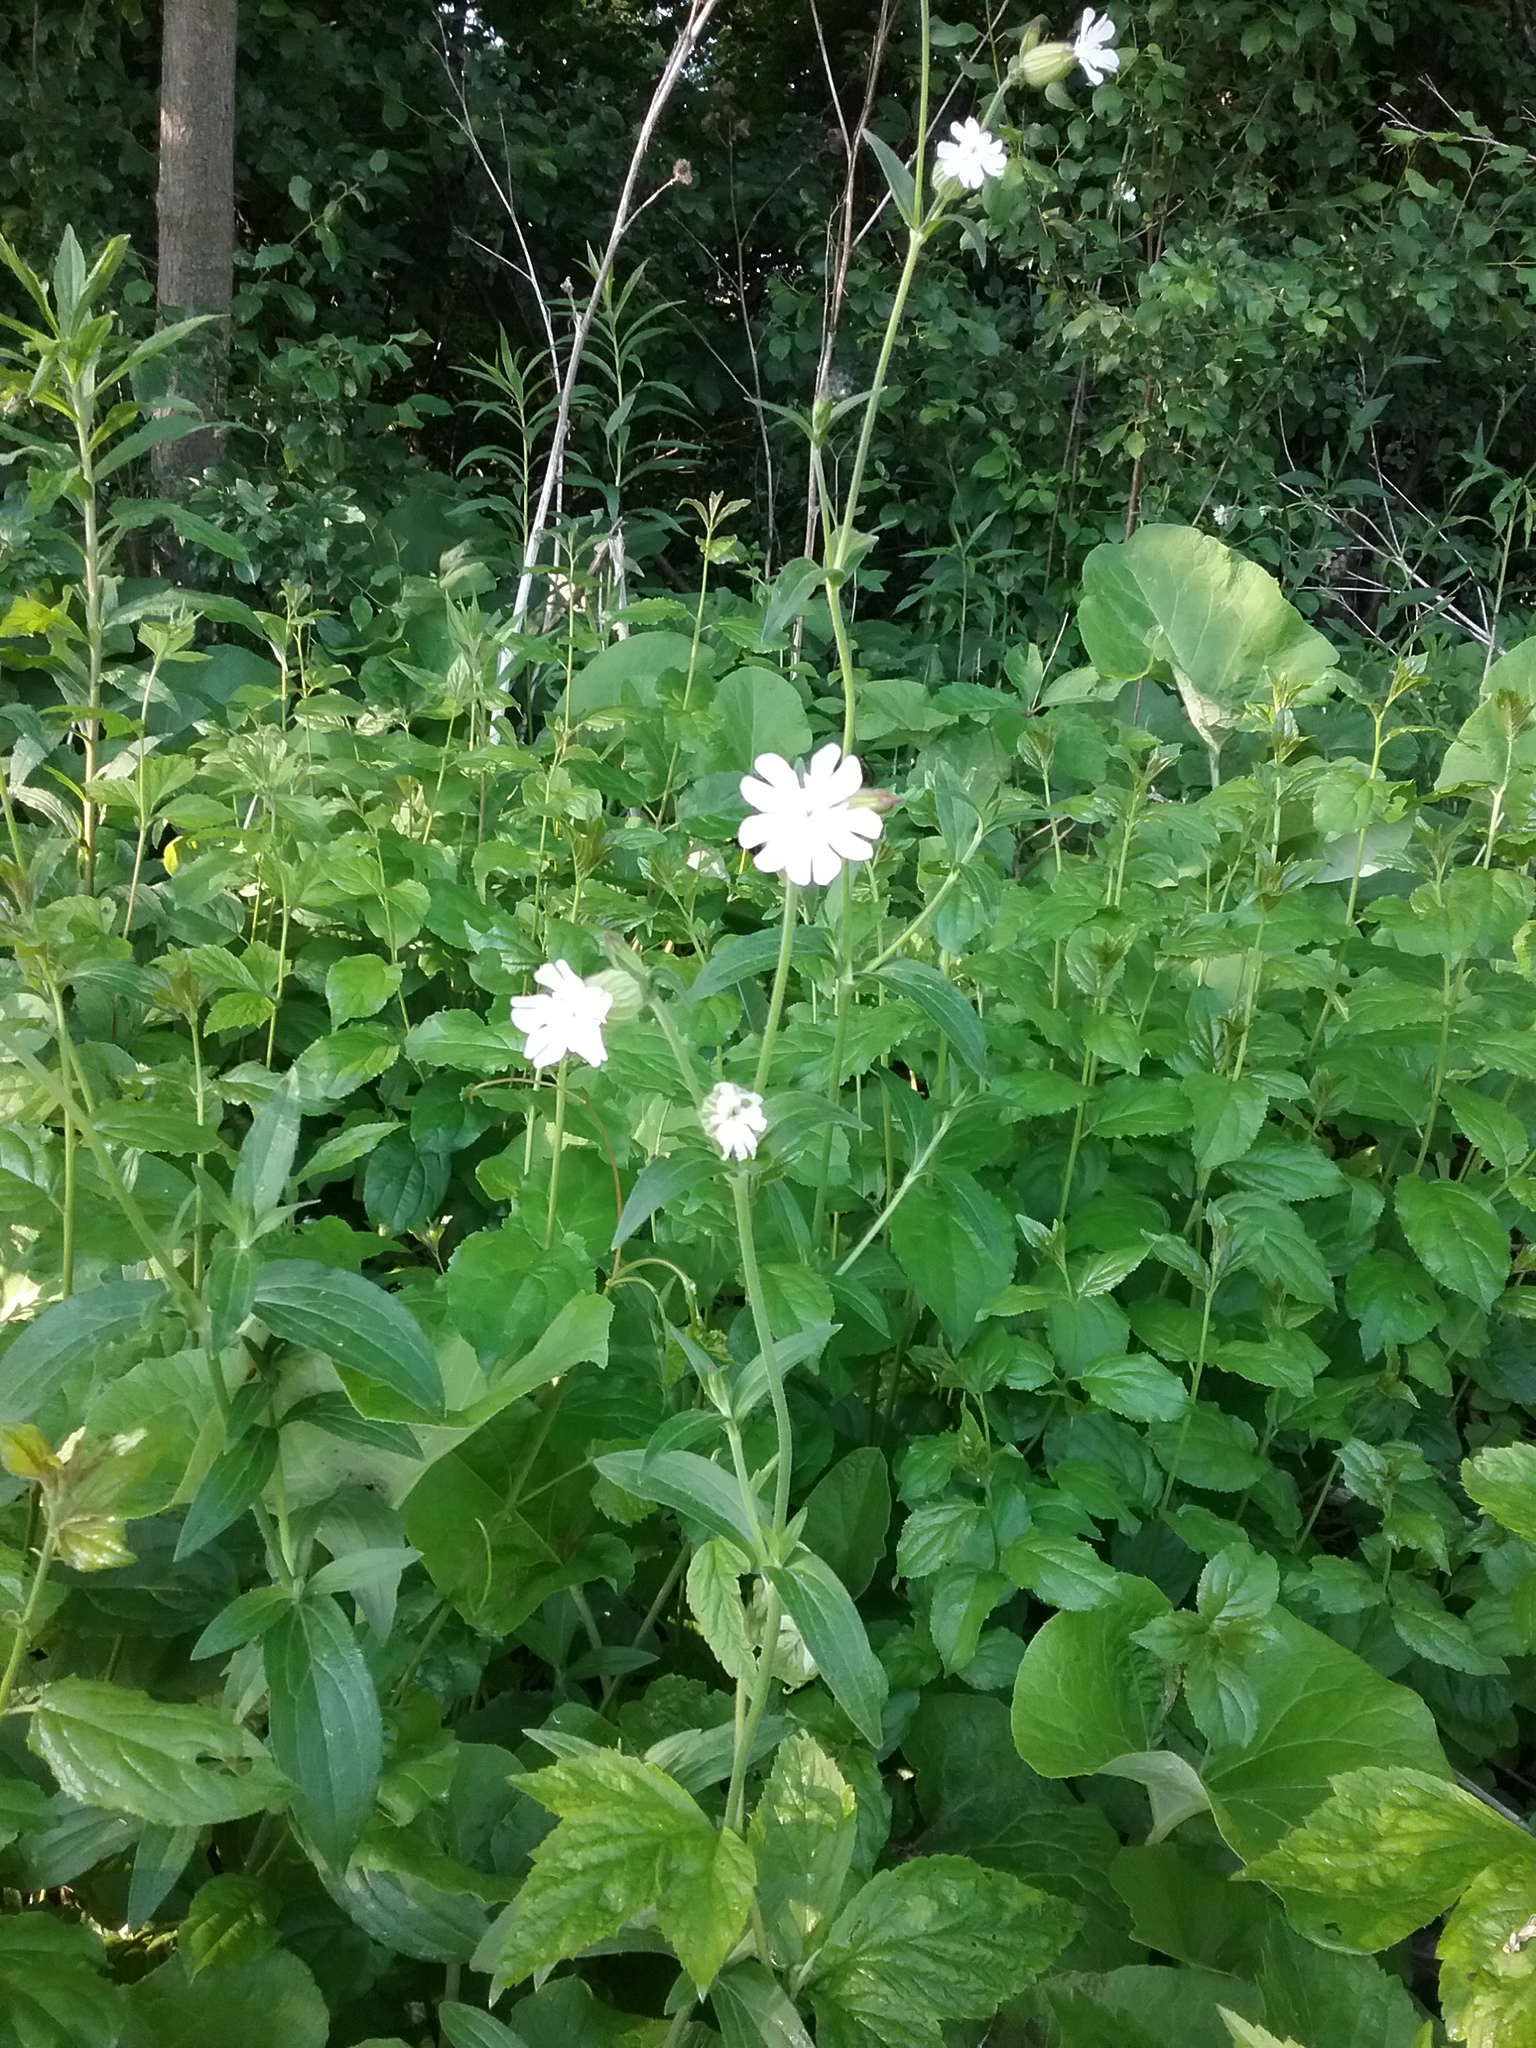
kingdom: Plantae
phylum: Tracheophyta
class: Magnoliopsida
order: Caryophyllales
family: Caryophyllaceae
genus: Silene
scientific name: Silene latifolia
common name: White campion
